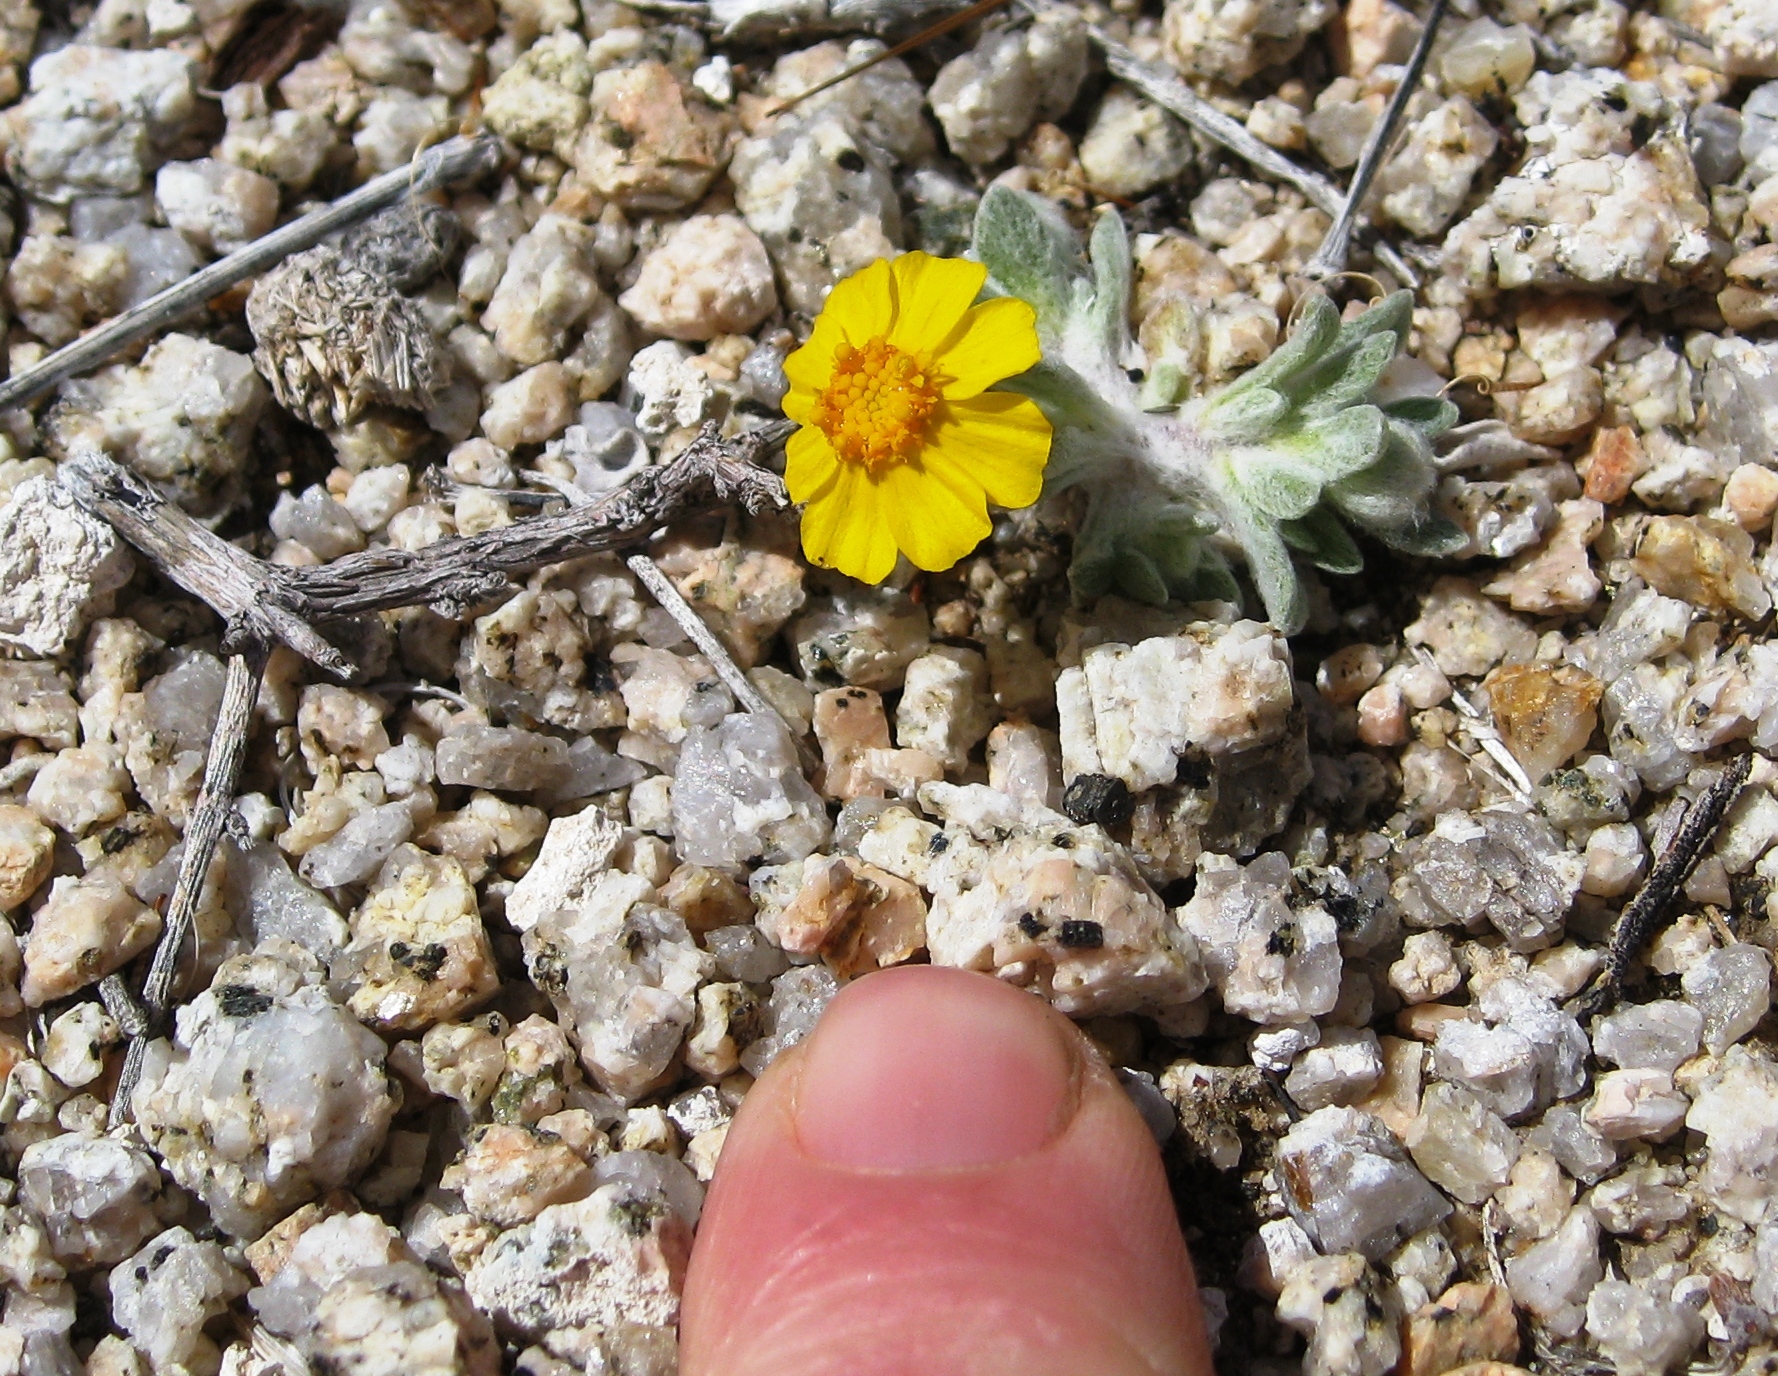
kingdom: Plantae
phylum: Tracheophyta
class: Magnoliopsida
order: Asterales
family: Asteraceae
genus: Eriophyllum
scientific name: Eriophyllum wallacei
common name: Wallace's woolly daisy
